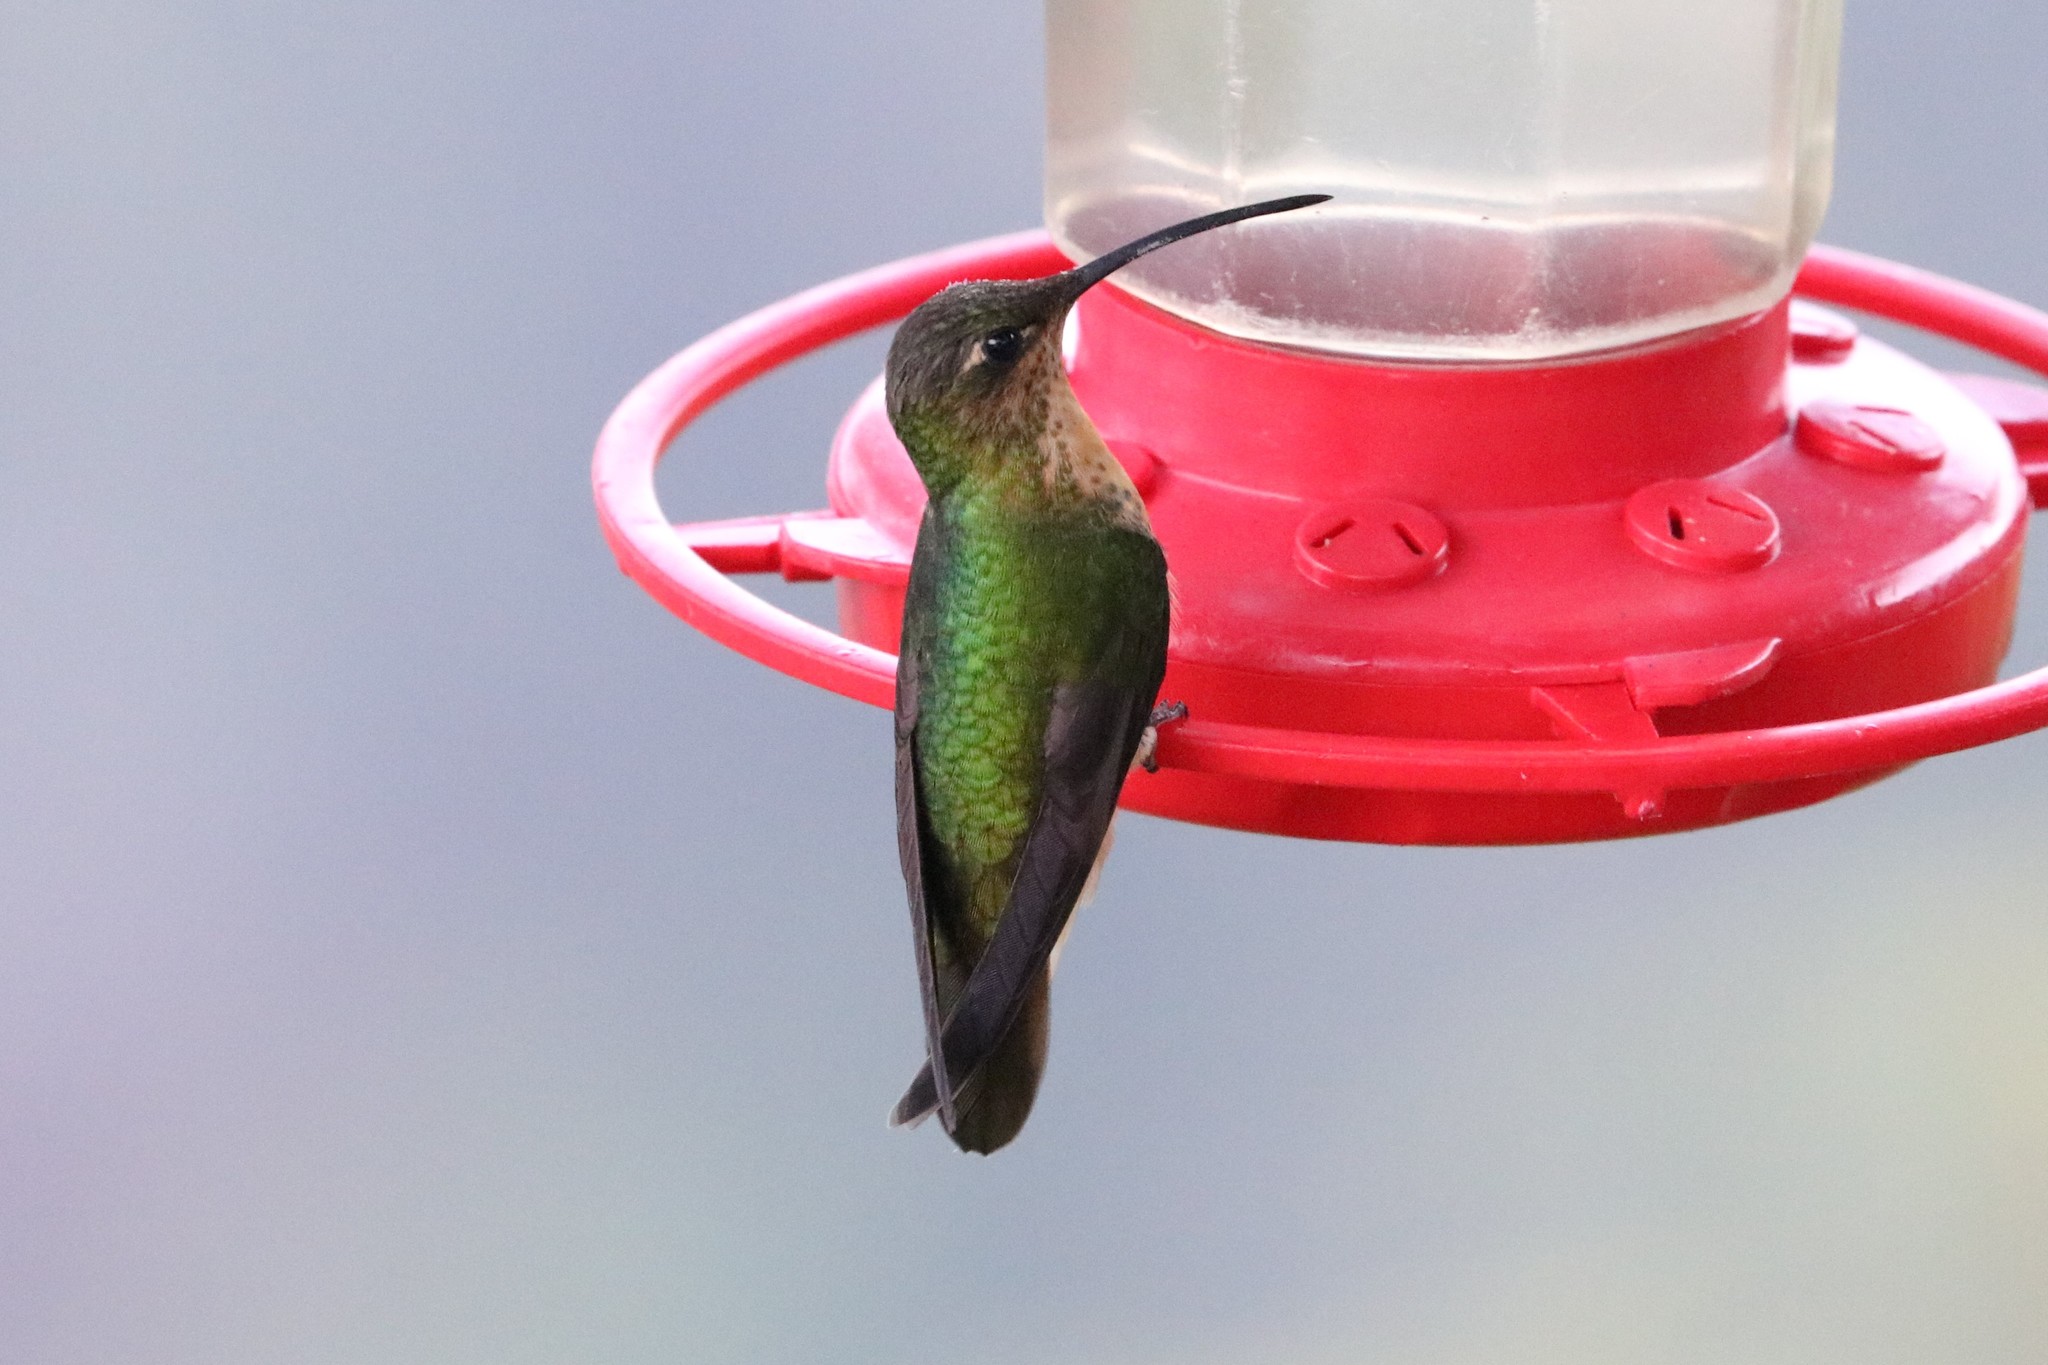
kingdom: Animalia
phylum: Chordata
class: Aves
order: Apodiformes
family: Trochilidae
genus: Lafresnaya
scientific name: Lafresnaya lafresnayi
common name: Mountain velvetbreast
